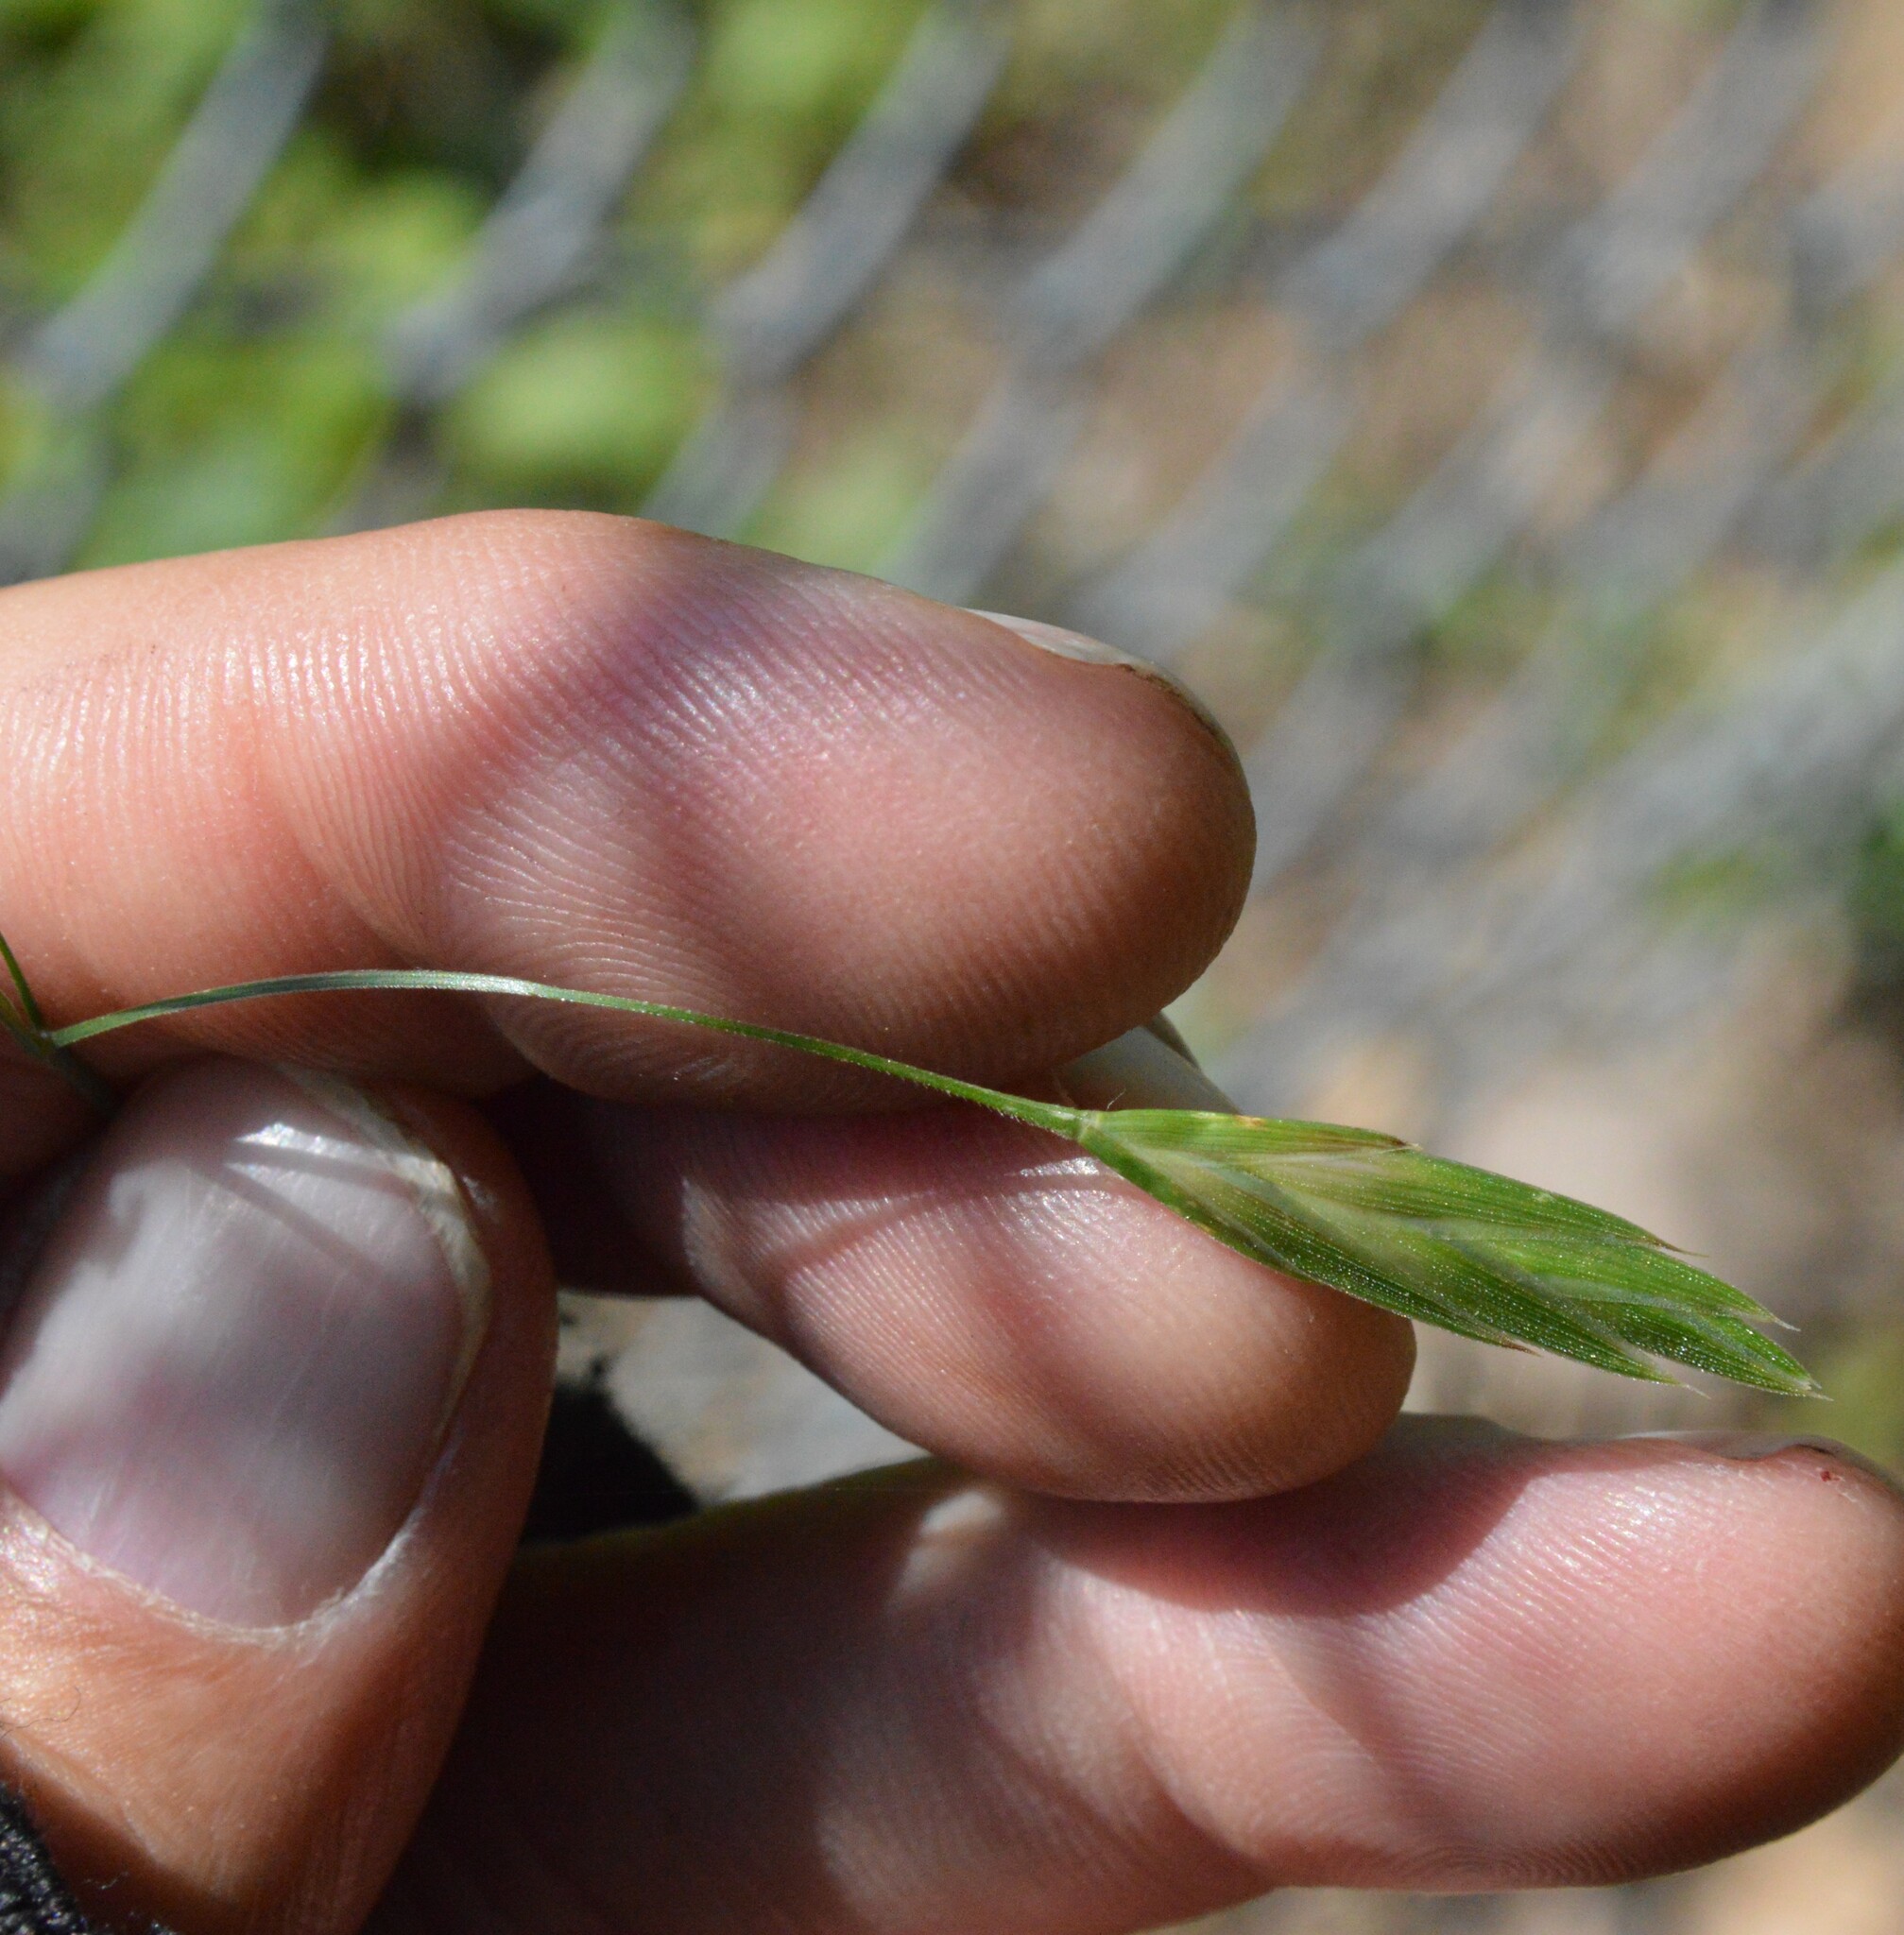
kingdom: Plantae
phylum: Tracheophyta
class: Liliopsida
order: Poales
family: Poaceae
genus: Bromus
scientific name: Bromus catharticus
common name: Rescuegrass
